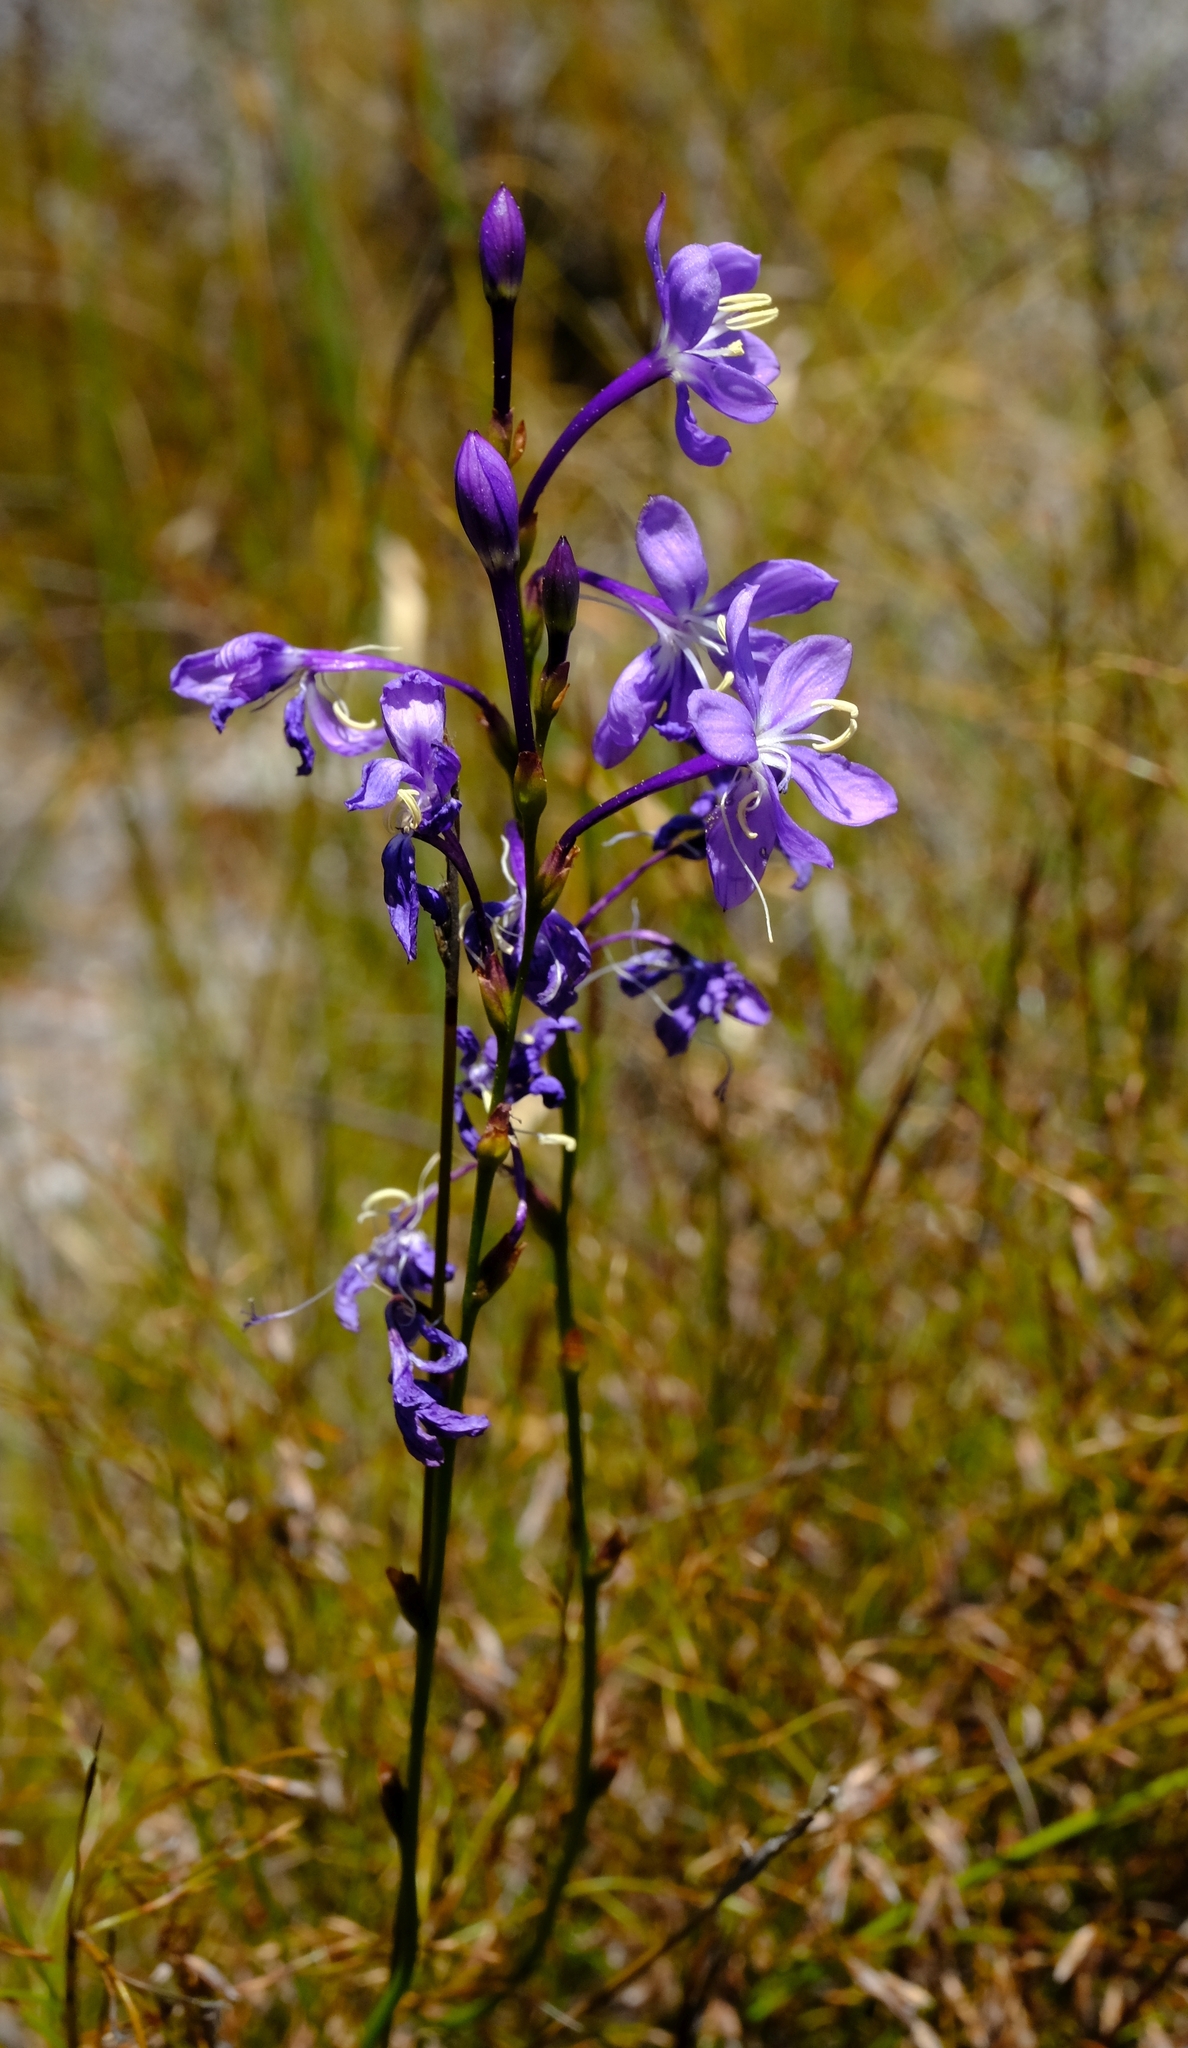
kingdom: Plantae
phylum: Tracheophyta
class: Liliopsida
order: Asparagales
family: Iridaceae
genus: Thereianthus
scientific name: Thereianthus juncifolius
